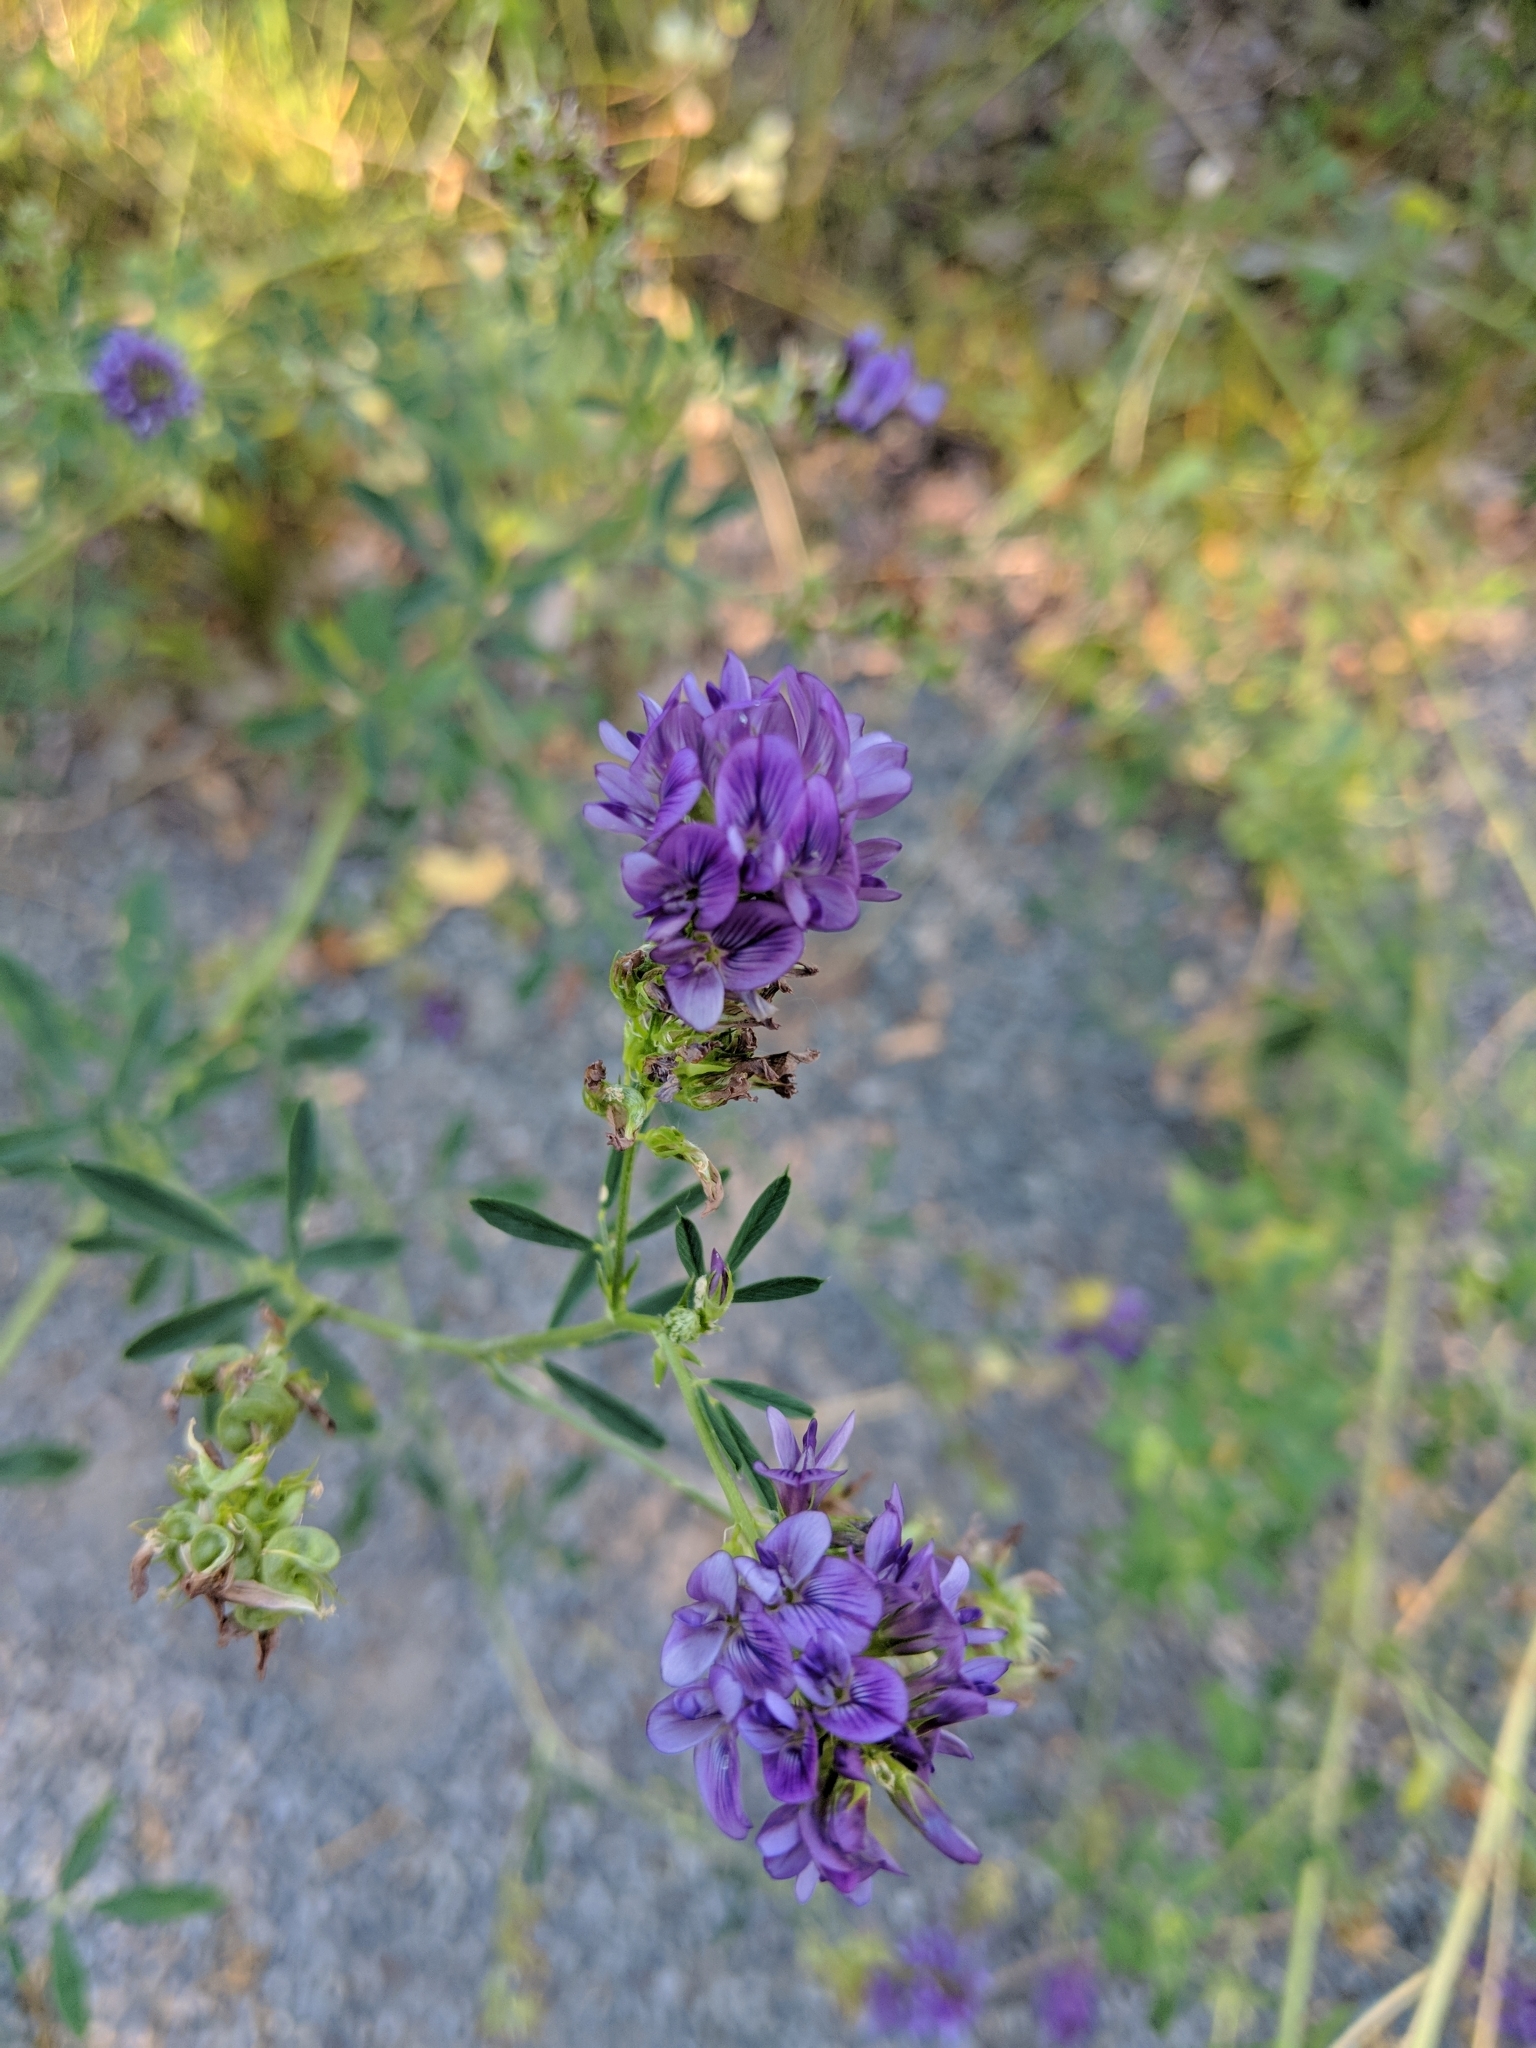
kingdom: Plantae
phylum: Tracheophyta
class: Magnoliopsida
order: Fabales
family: Fabaceae
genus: Medicago
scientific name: Medicago sativa
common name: Alfalfa
